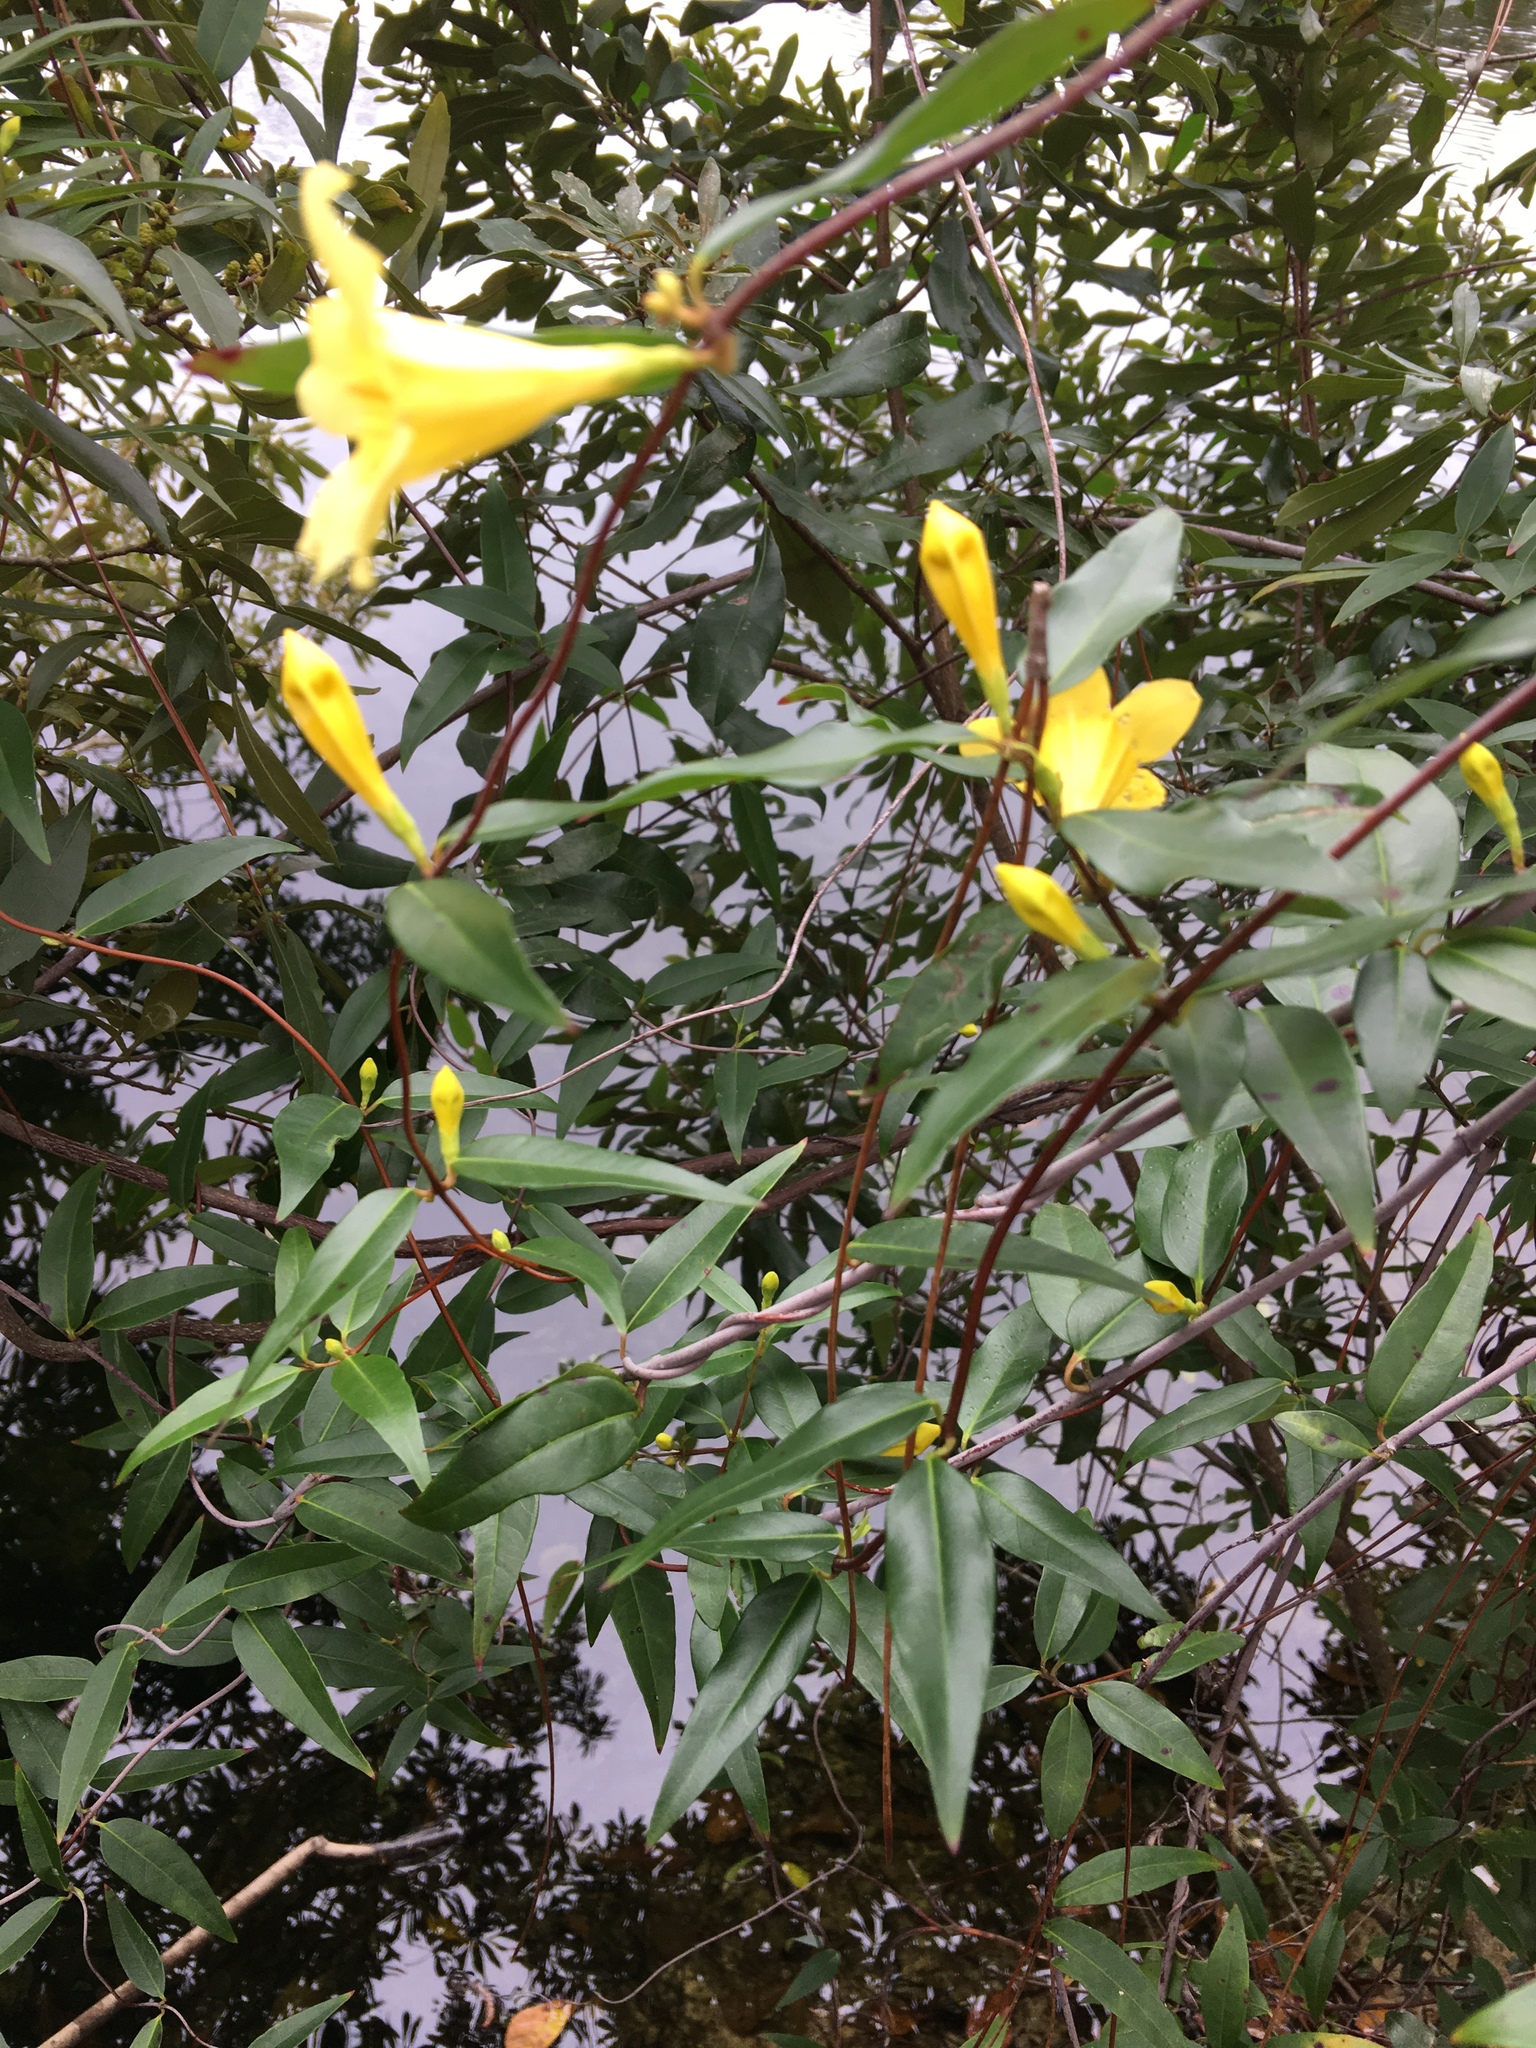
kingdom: Plantae
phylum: Tracheophyta
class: Magnoliopsida
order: Gentianales
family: Gelsemiaceae
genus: Gelsemium
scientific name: Gelsemium sempervirens
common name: Carolina-jasmine
